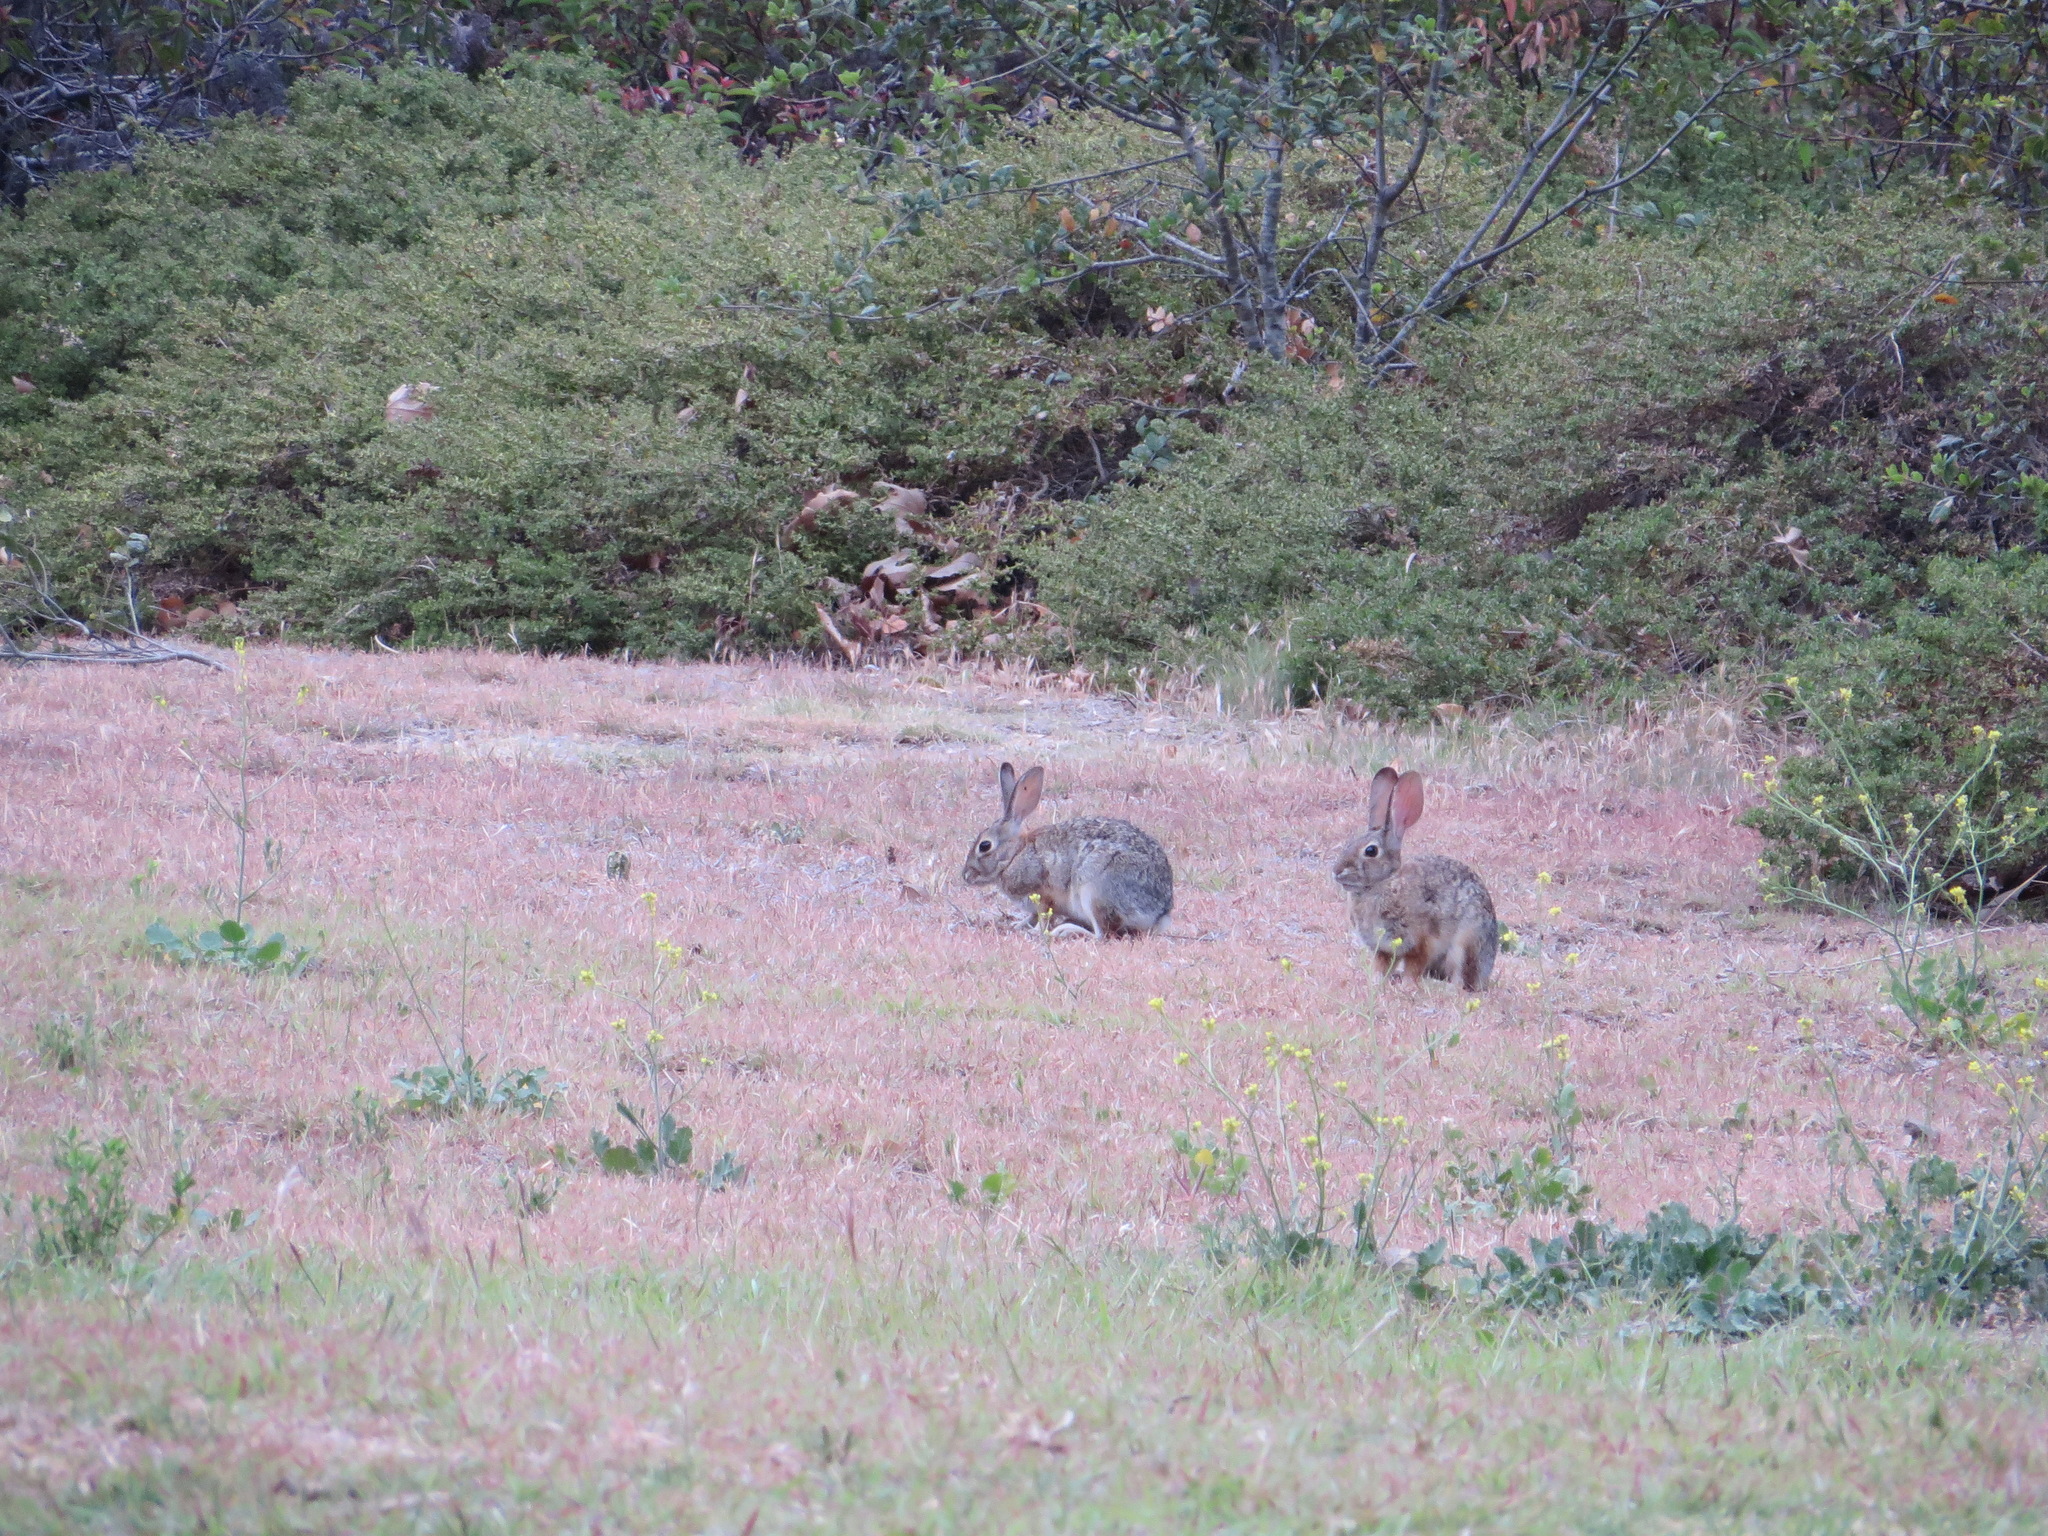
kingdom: Animalia
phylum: Chordata
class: Mammalia
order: Lagomorpha
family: Leporidae
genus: Sylvilagus
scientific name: Sylvilagus audubonii
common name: Desert cottontail
